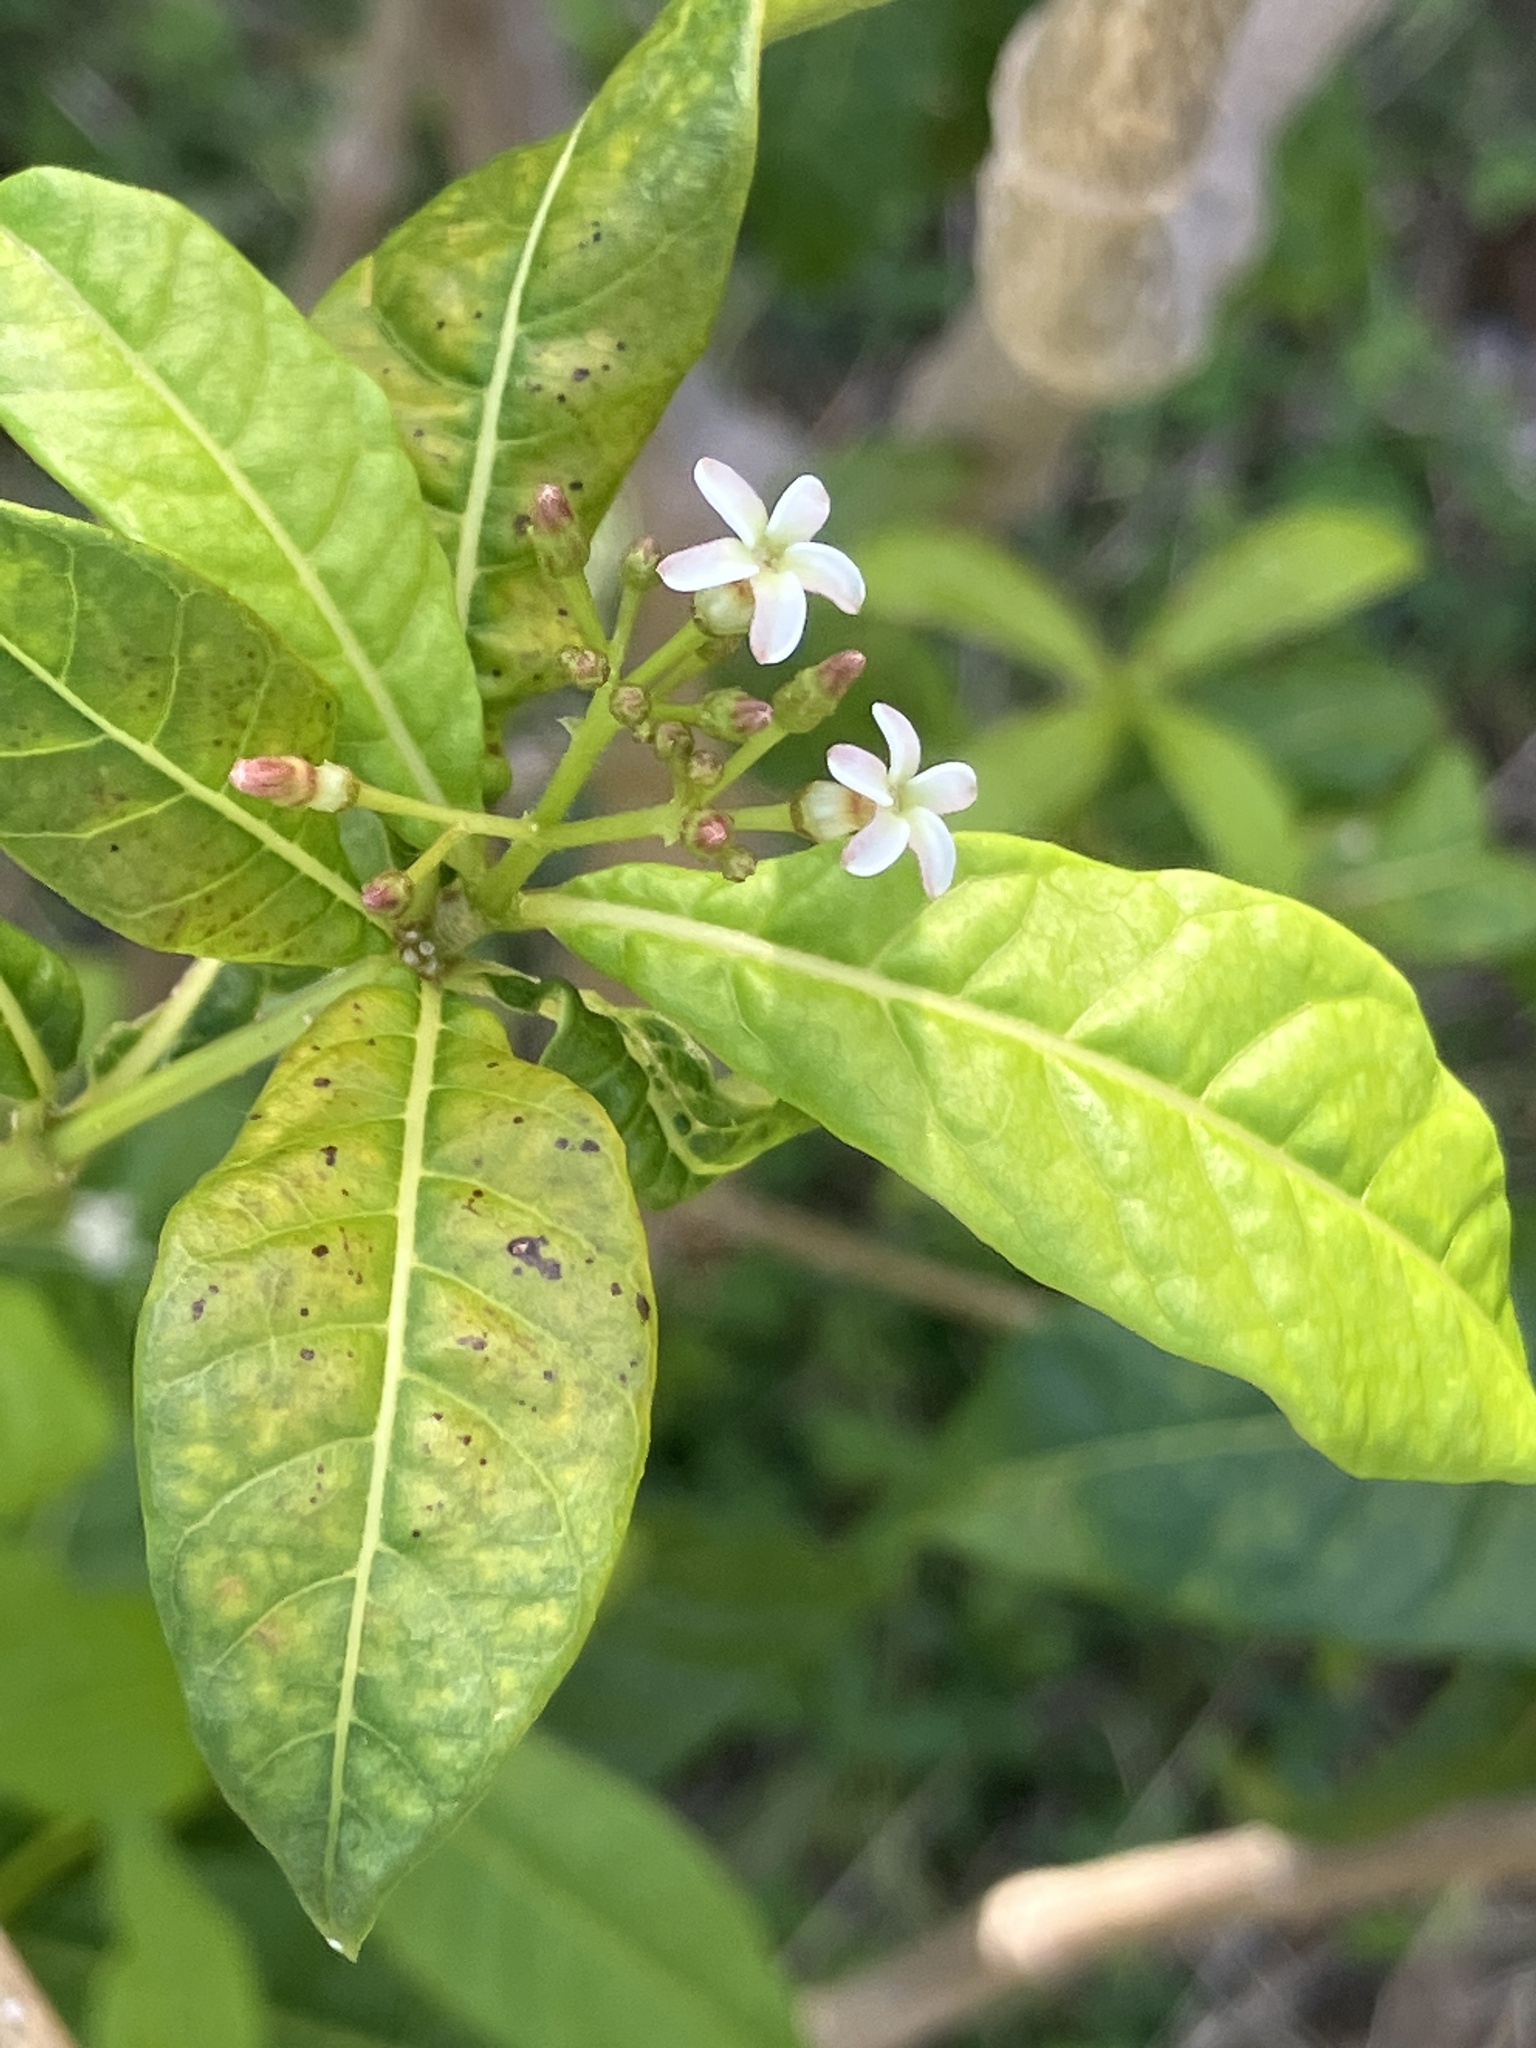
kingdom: Plantae
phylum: Tracheophyta
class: Magnoliopsida
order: Gentianales
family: Apocynaceae
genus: Rauvolfia
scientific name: Rauvolfia viridis
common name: Bellyache
